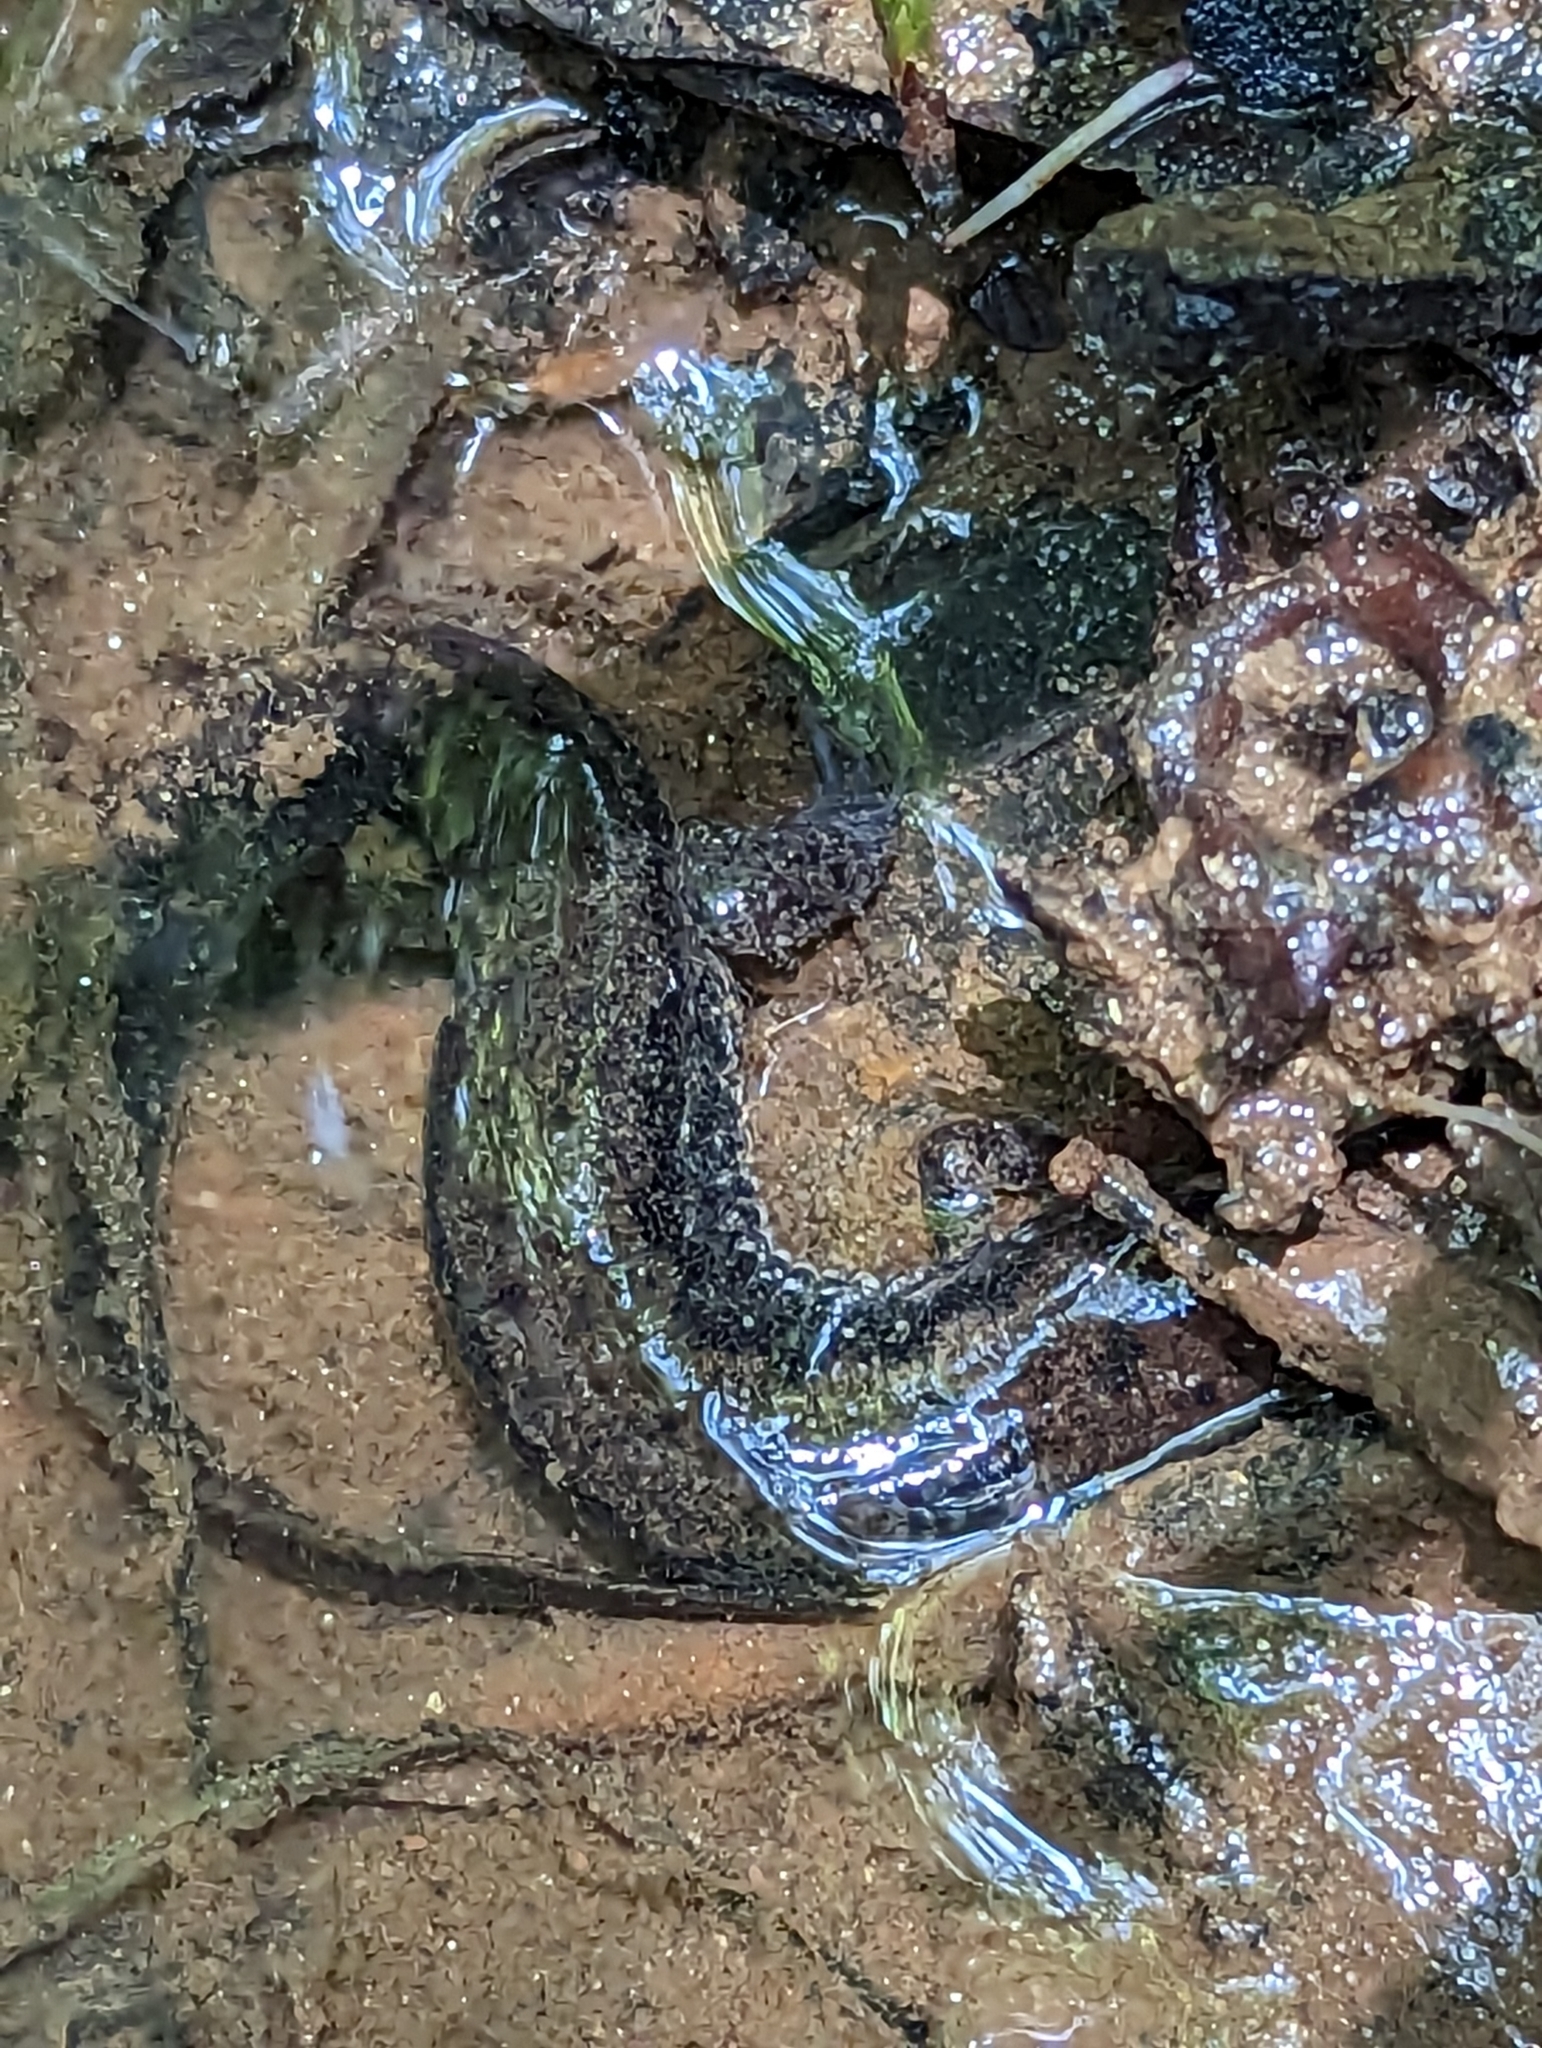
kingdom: Animalia
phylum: Chordata
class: Amphibia
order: Caudata
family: Plethodontidae
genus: Desmognathus
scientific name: Desmognathus
